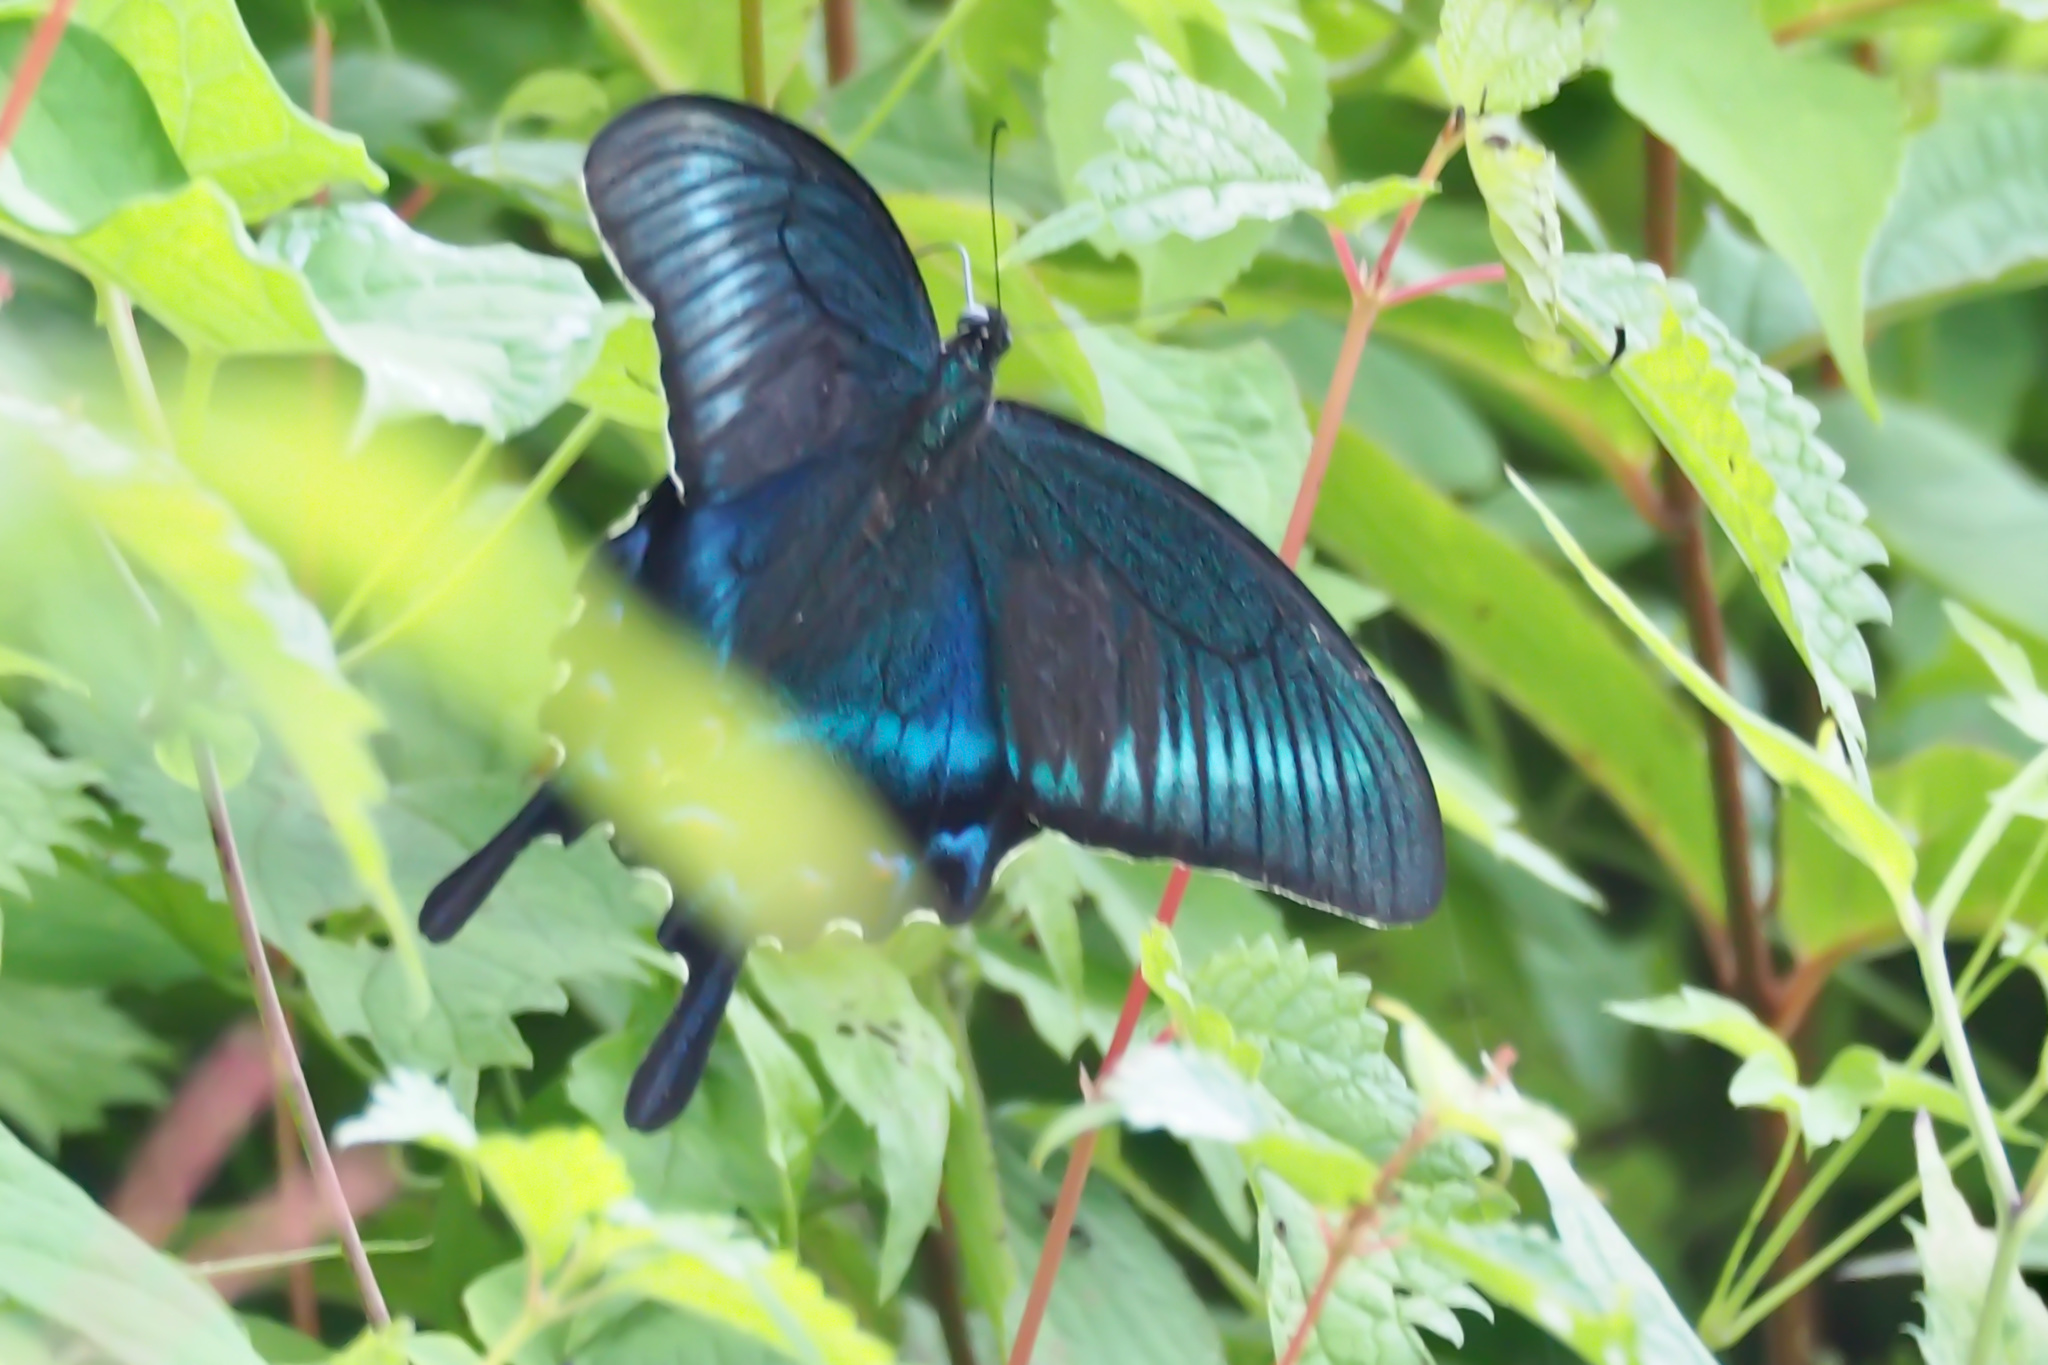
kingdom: Animalia
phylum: Arthropoda
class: Insecta
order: Lepidoptera
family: Papilionidae
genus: Papilio
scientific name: Papilio maackii
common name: Alpine black swallowtail
